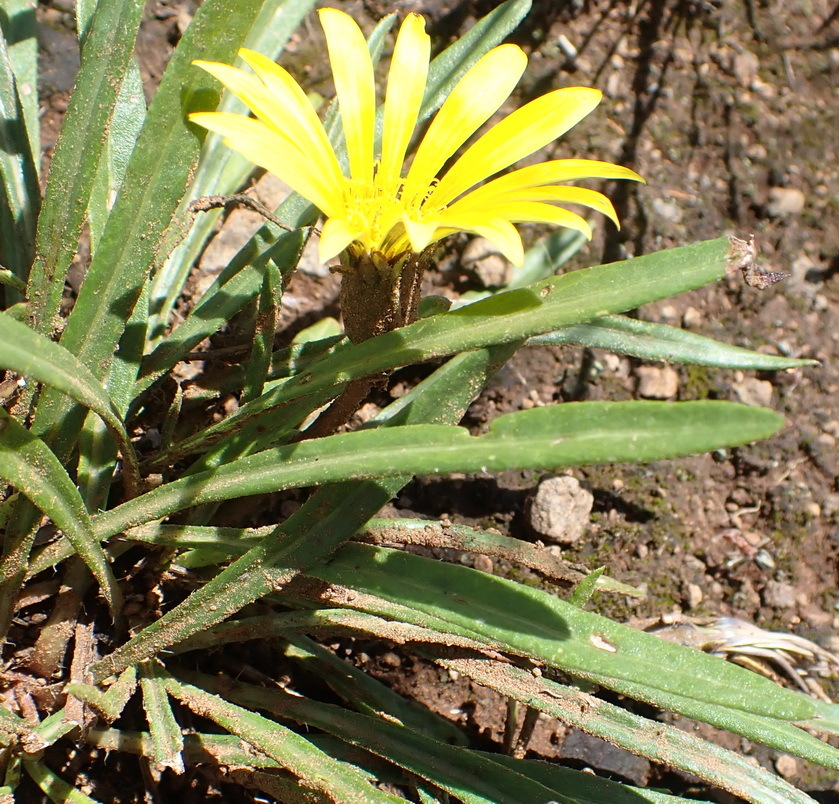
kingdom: Plantae
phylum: Tracheophyta
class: Magnoliopsida
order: Asterales
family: Asteraceae
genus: Gazania
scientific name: Gazania krebsiana
